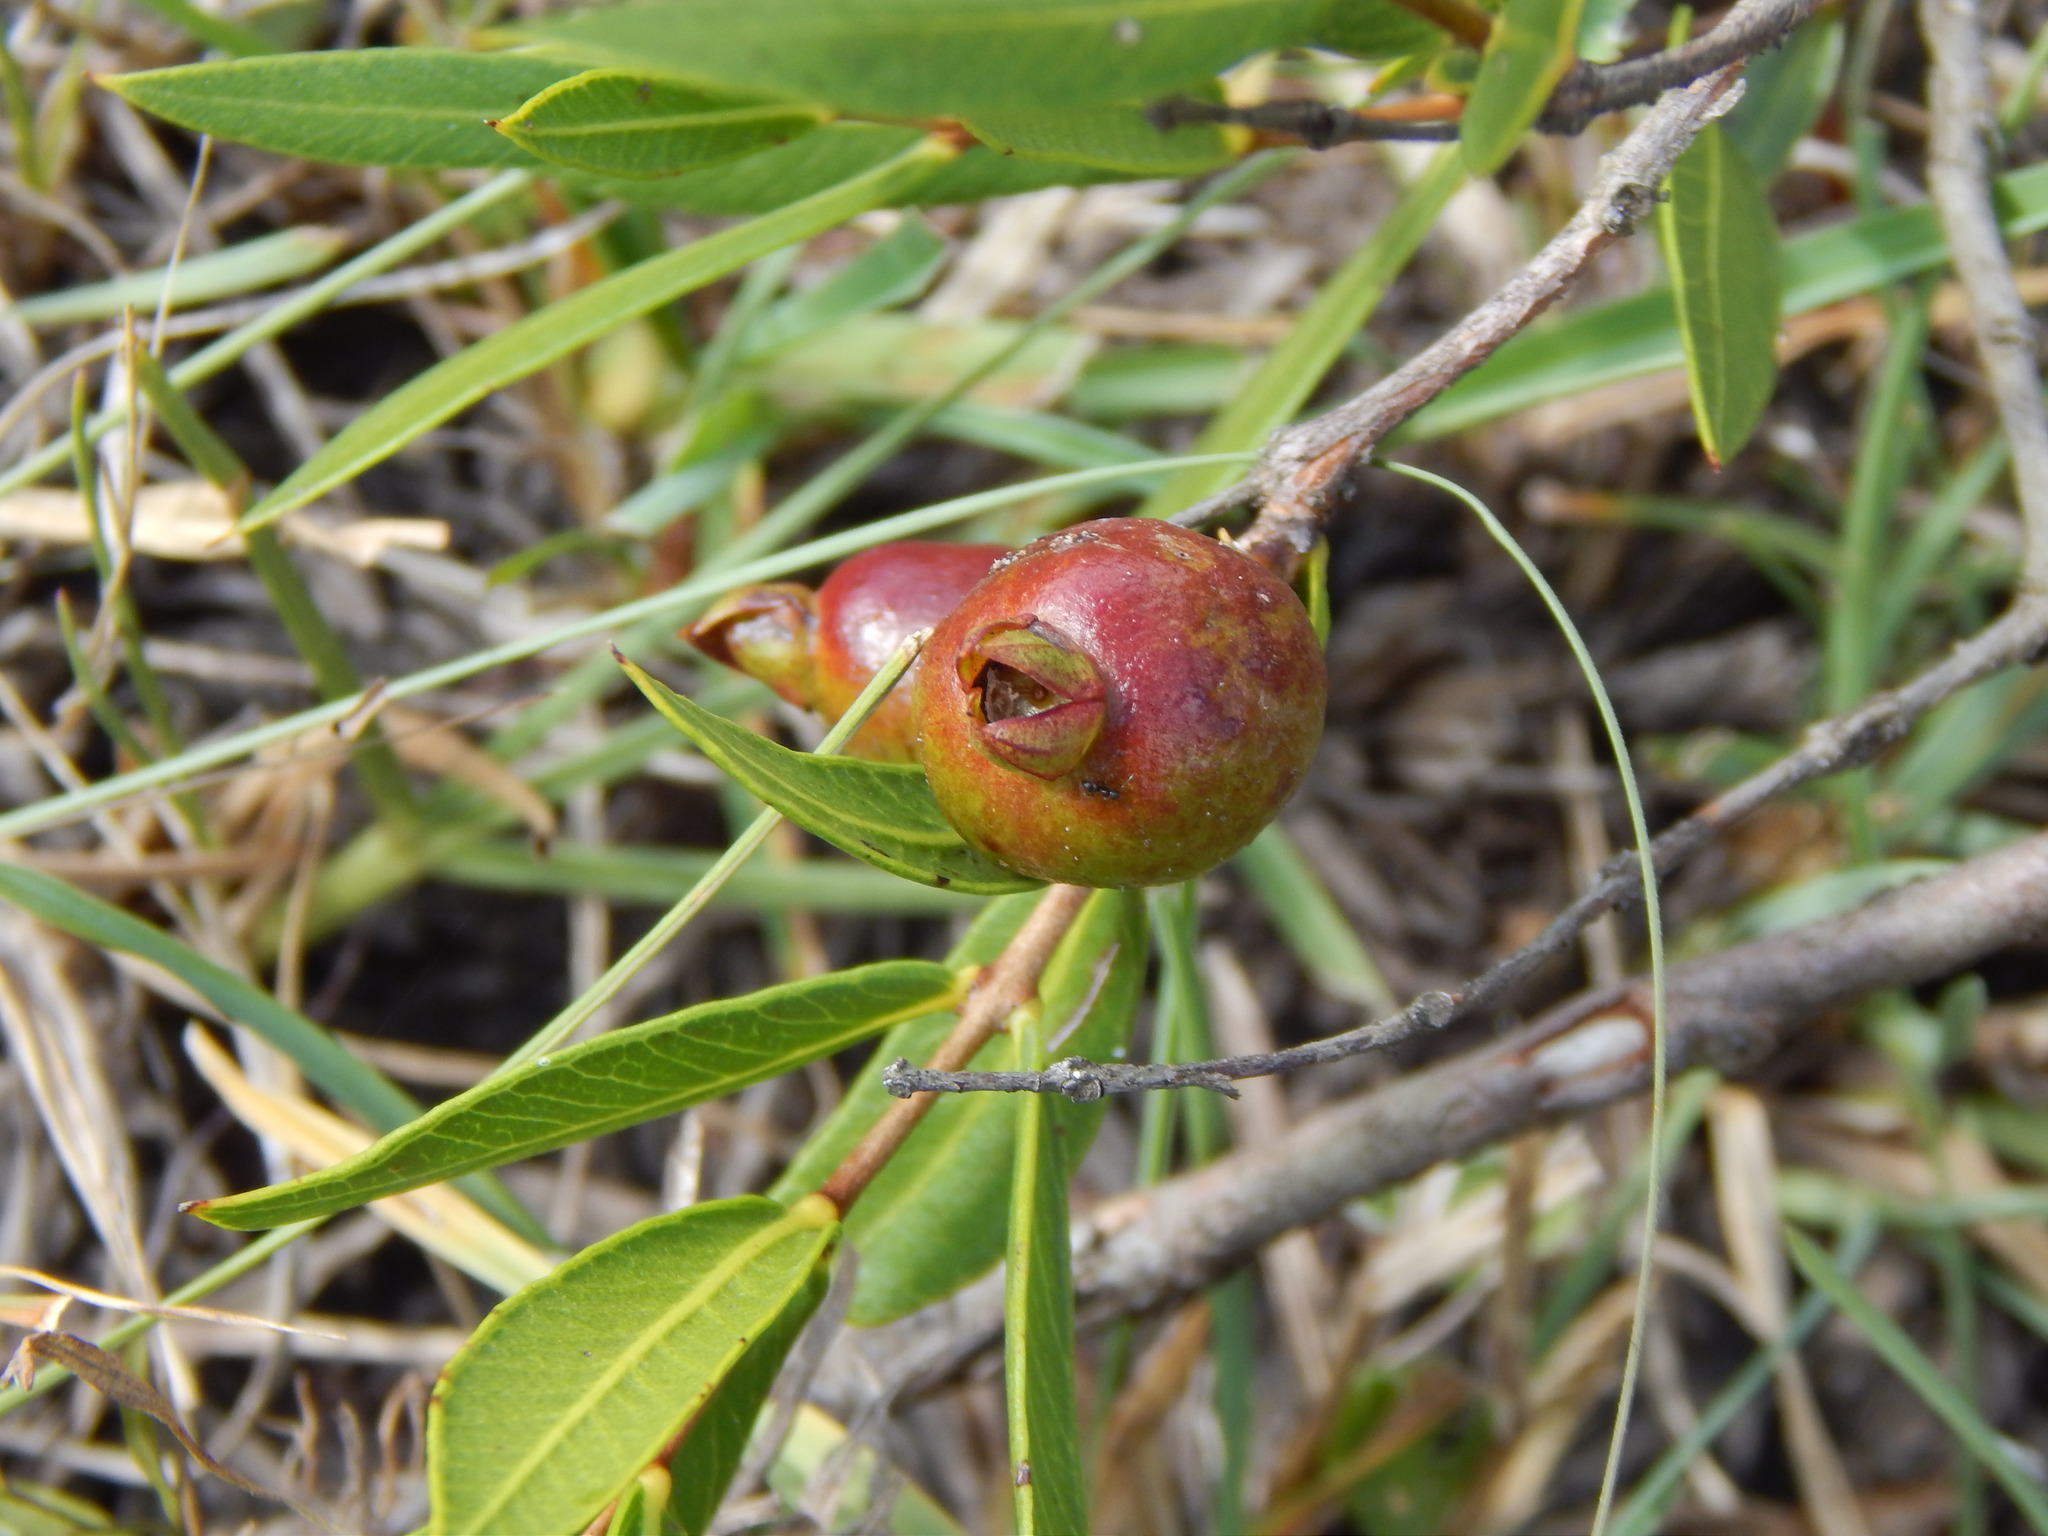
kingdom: Plantae
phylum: Tracheophyta
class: Magnoliopsida
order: Myrtales
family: Myrtaceae
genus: Psidium
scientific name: Psidium salutare
